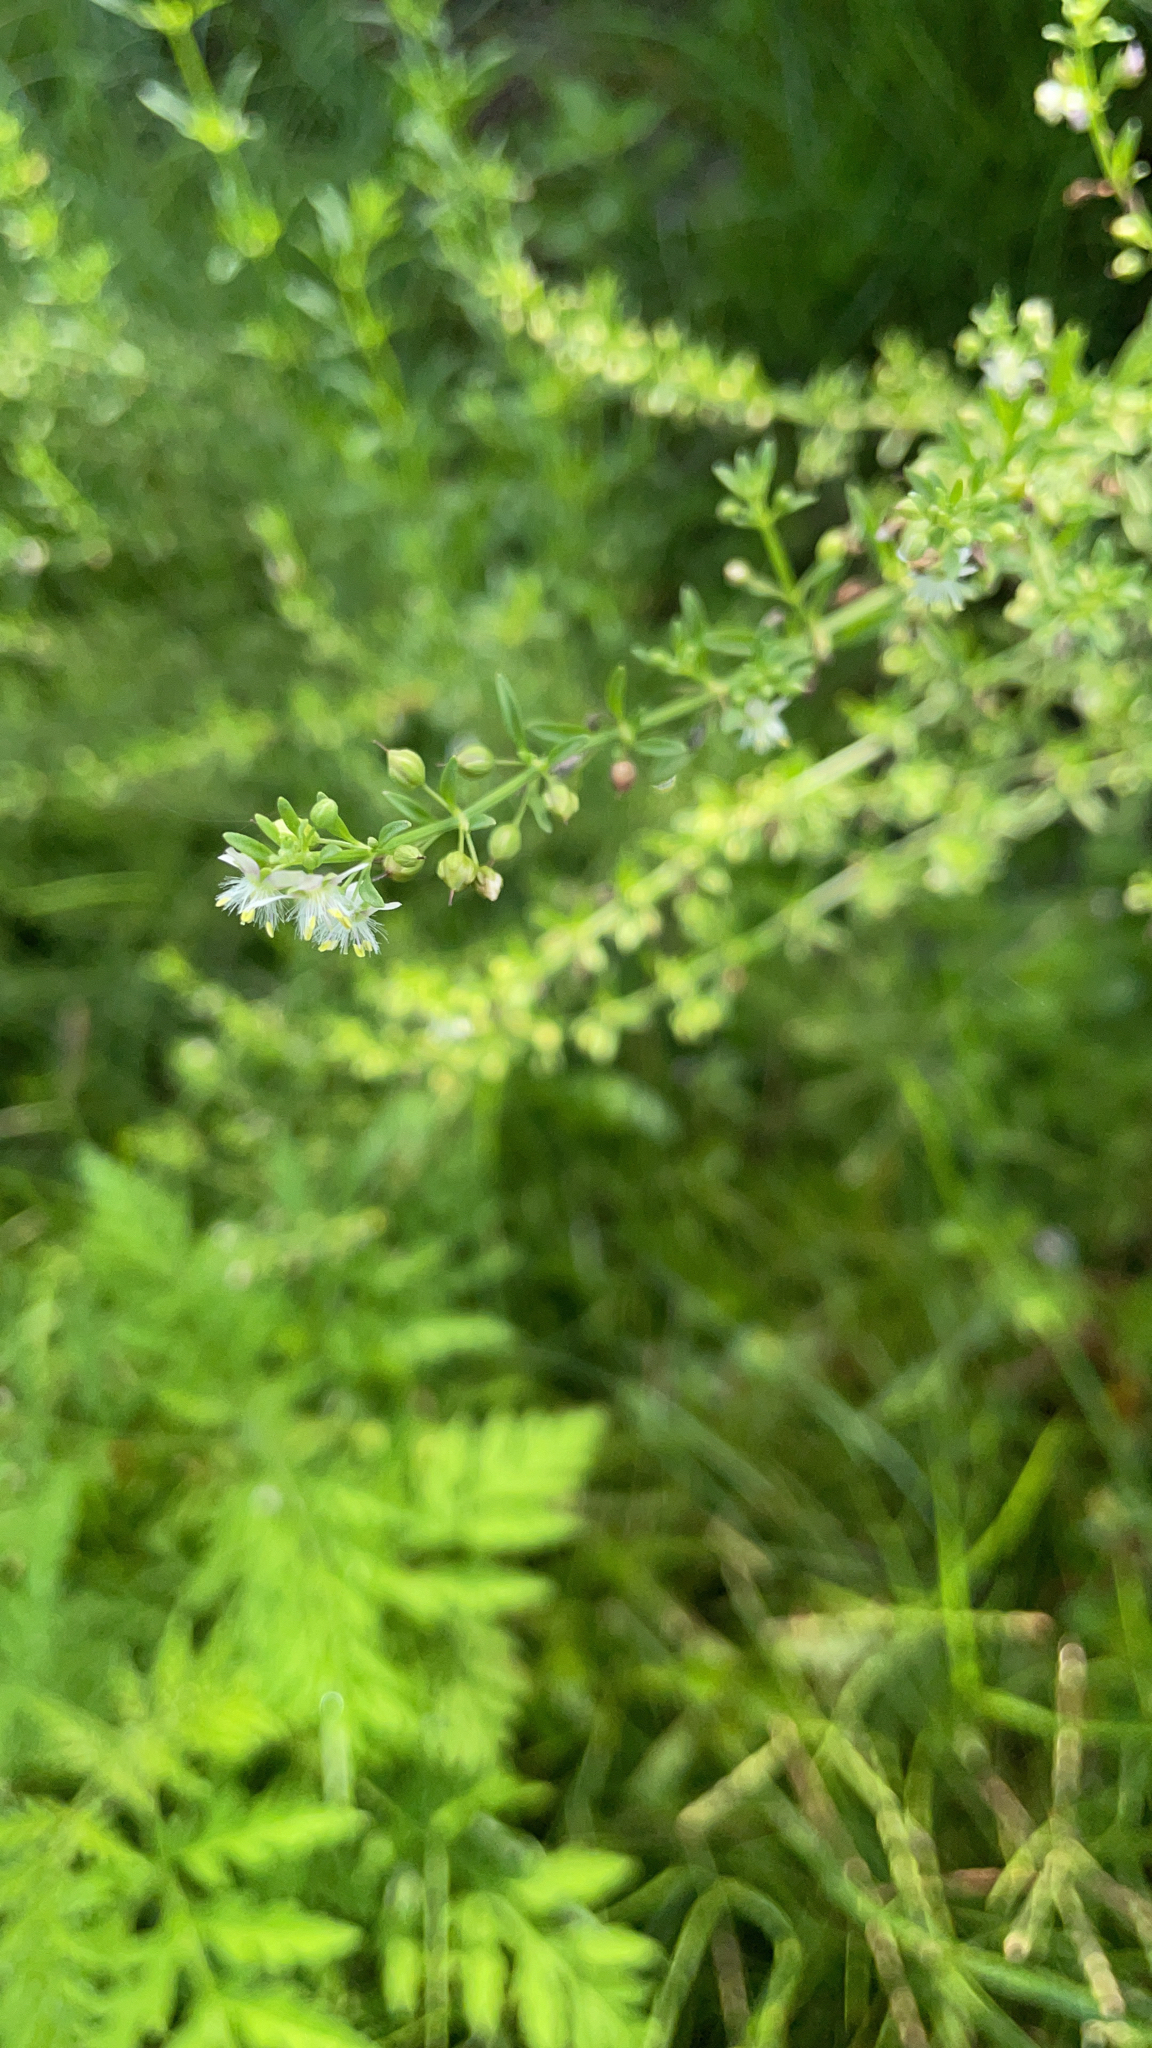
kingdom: Plantae
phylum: Tracheophyta
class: Magnoliopsida
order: Lamiales
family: Plantaginaceae
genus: Scoparia
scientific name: Scoparia dulcis
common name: Scoparia-weed
